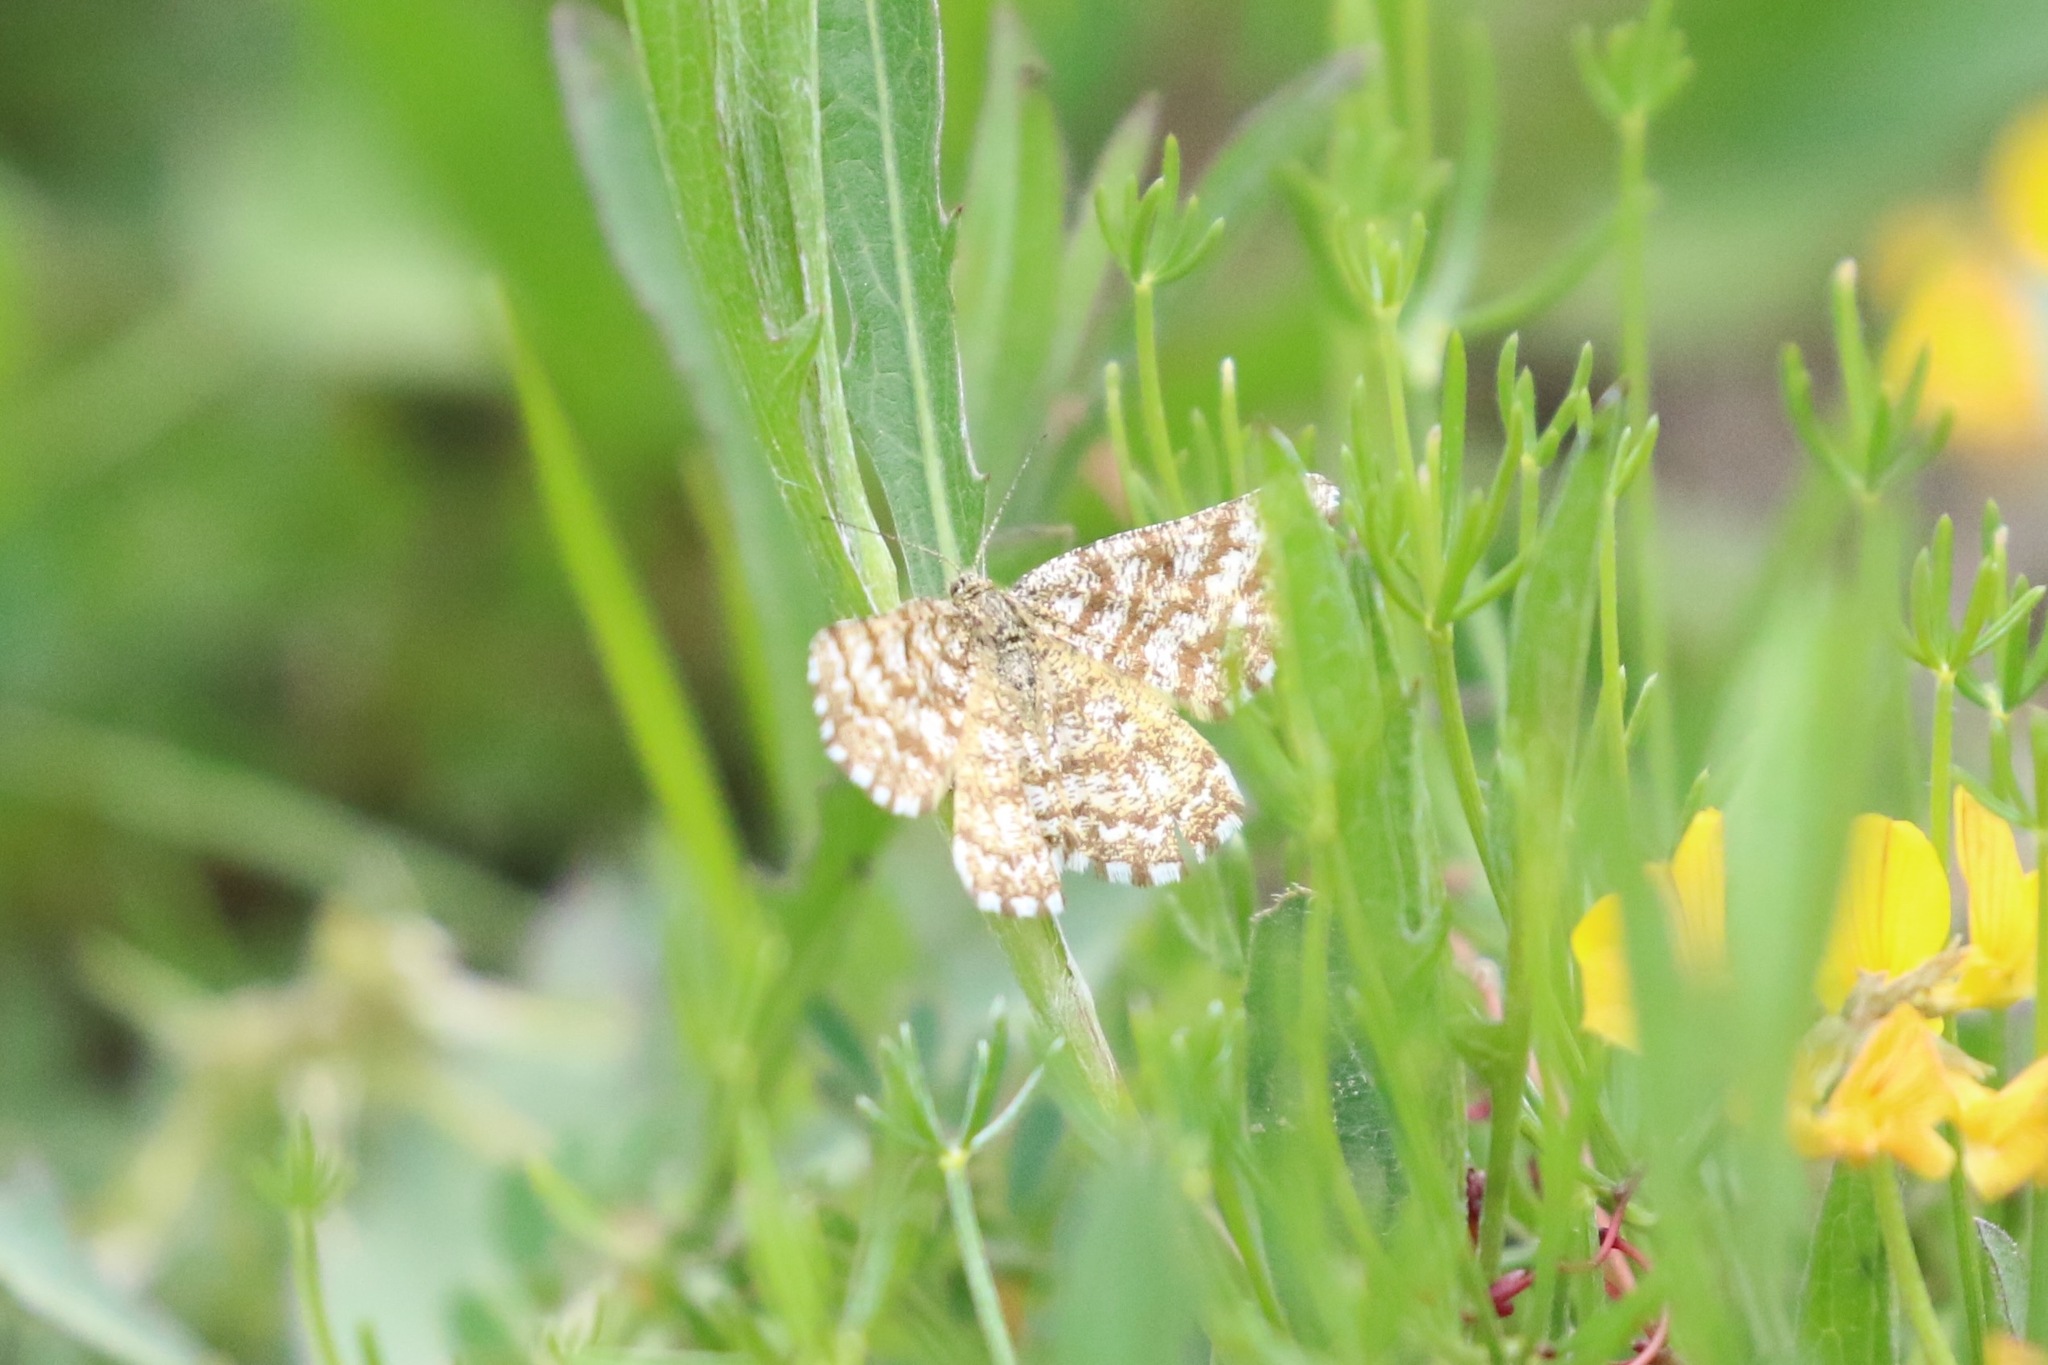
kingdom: Animalia
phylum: Arthropoda
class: Insecta
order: Lepidoptera
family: Geometridae
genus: Ematurga
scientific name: Ematurga atomaria
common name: Common heath
